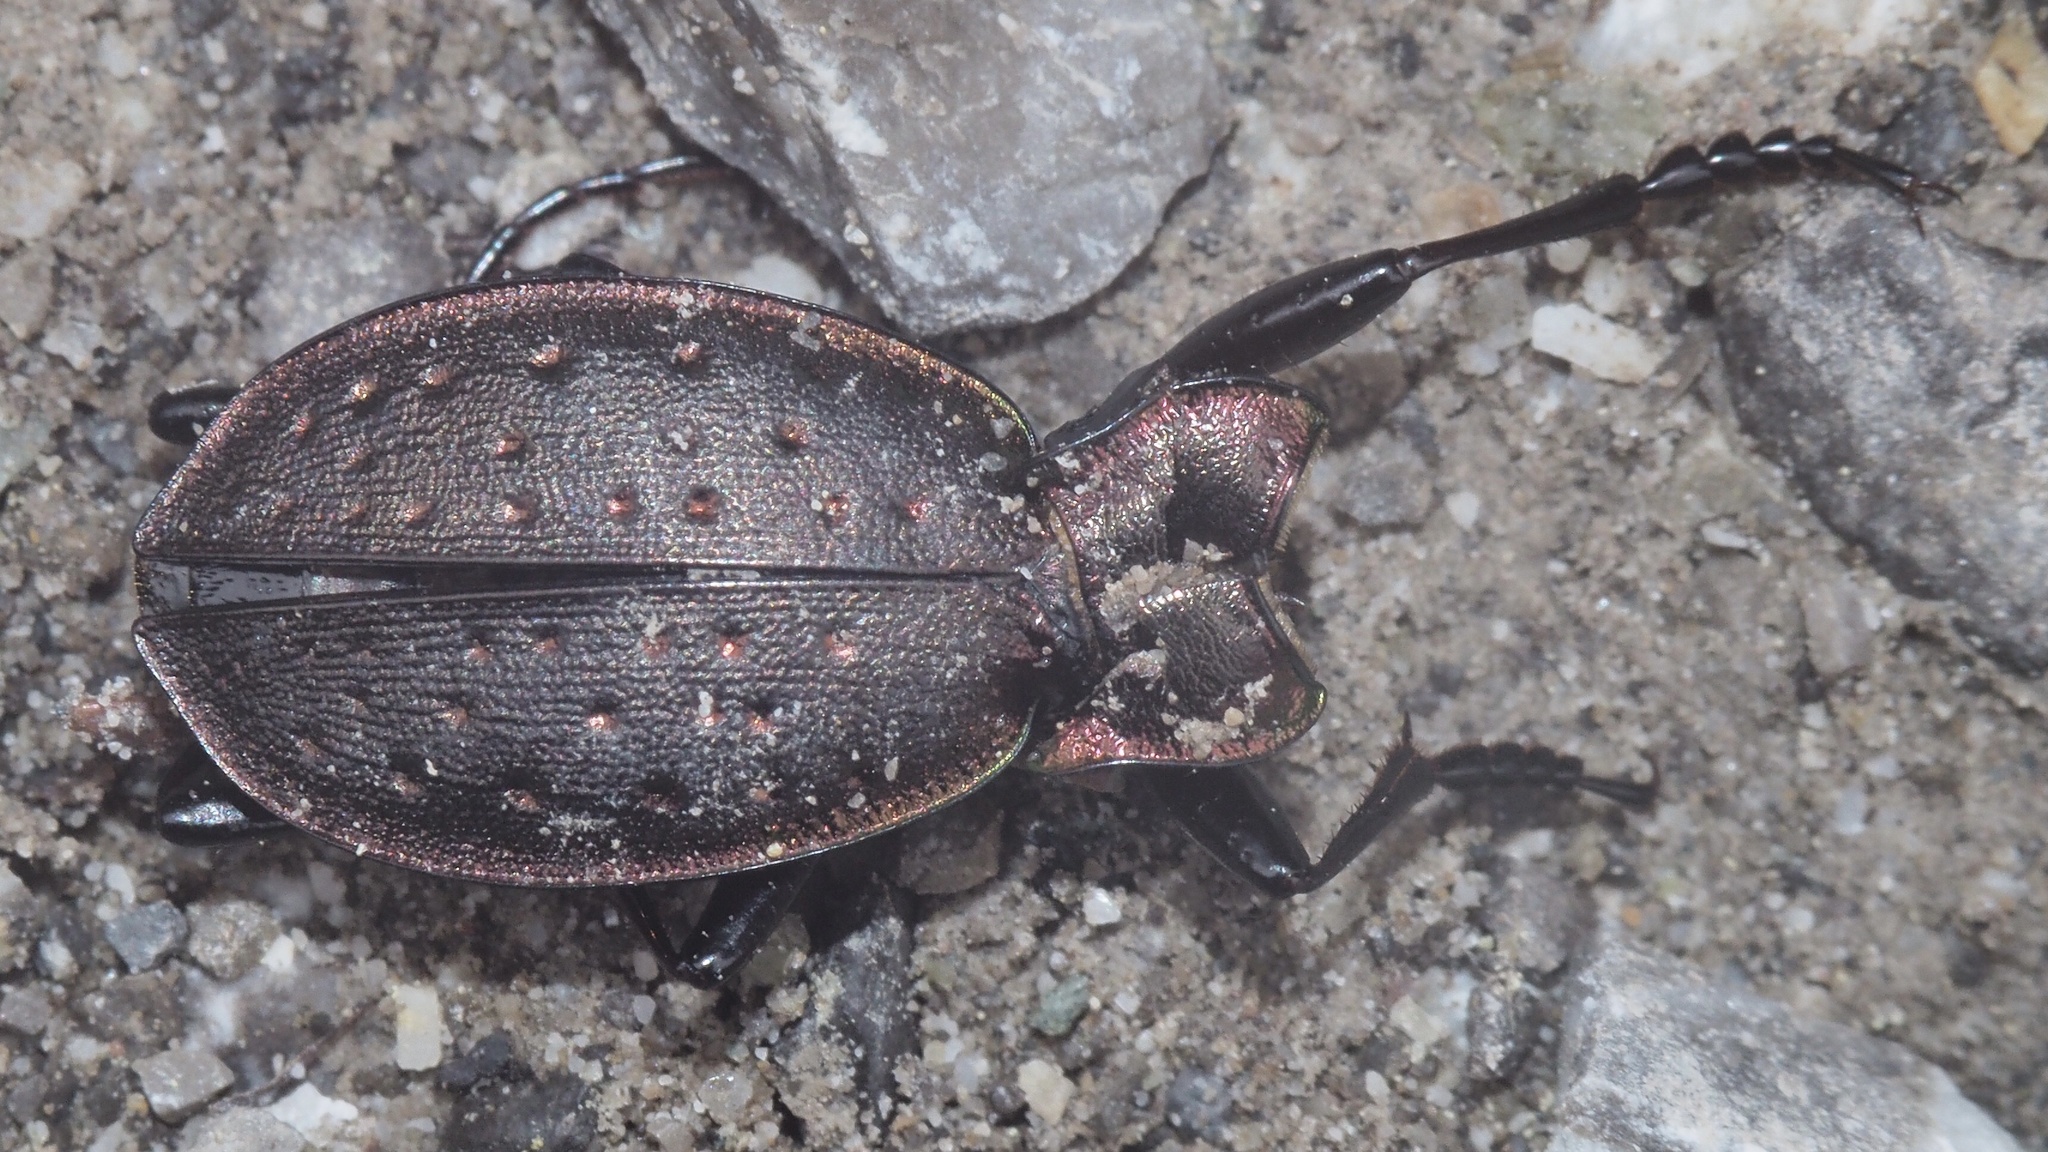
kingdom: Animalia
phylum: Arthropoda
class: Insecta
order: Coleoptera
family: Carabidae
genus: Carabus
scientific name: Carabus irregularis
